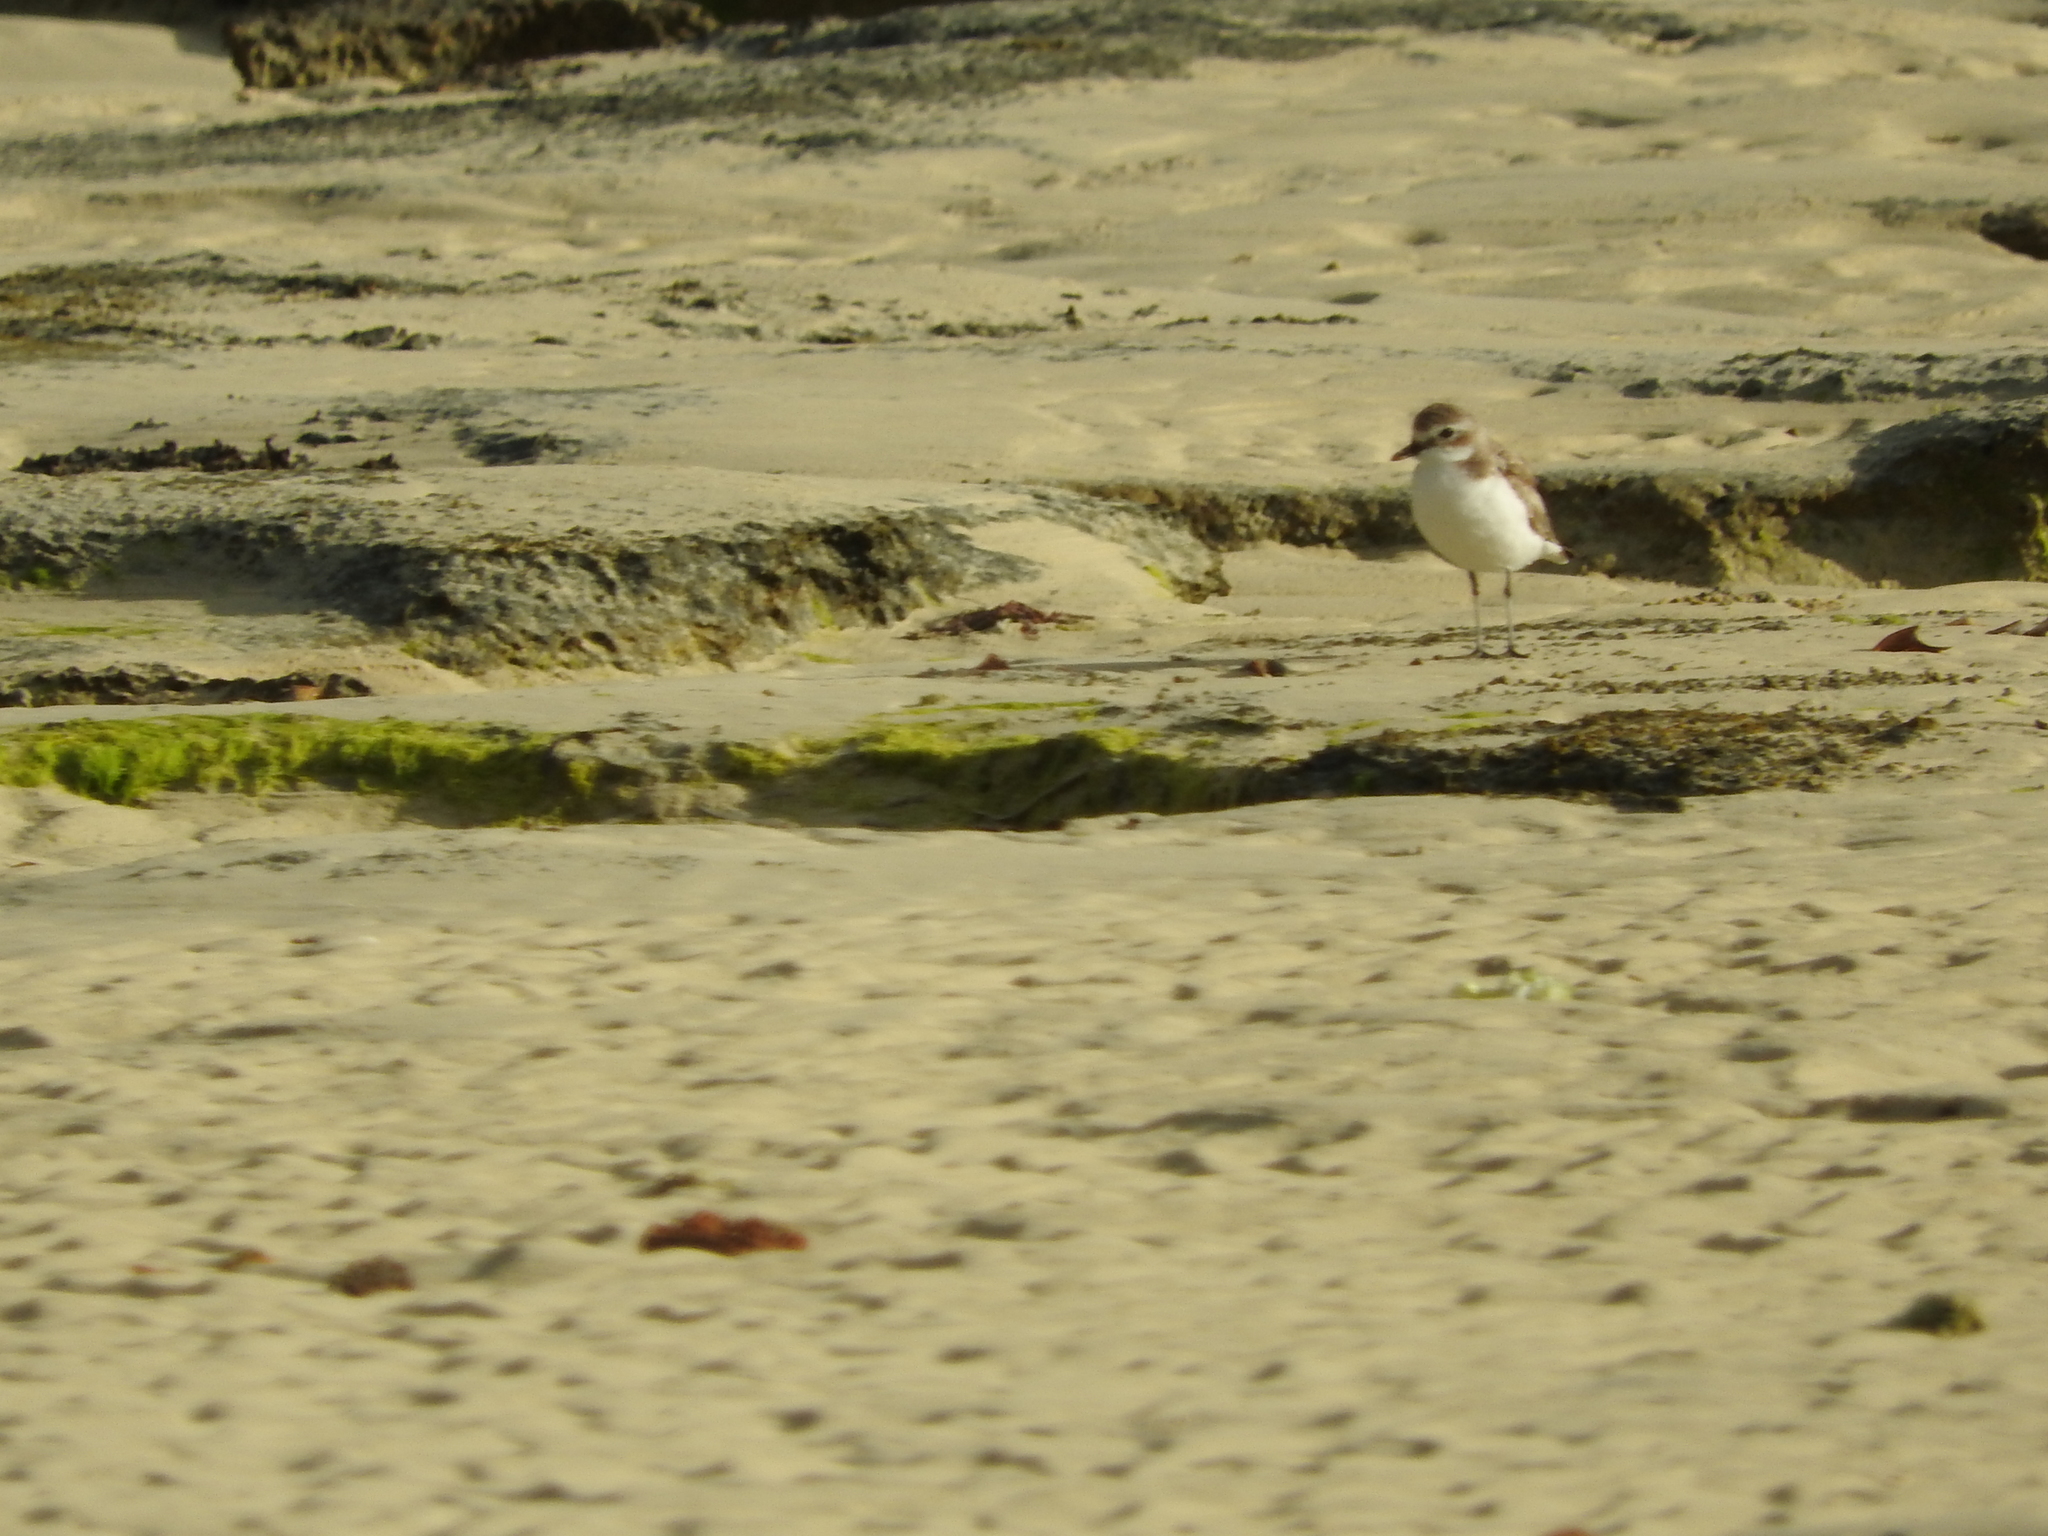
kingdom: Animalia
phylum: Chordata
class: Aves
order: Charadriiformes
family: Charadriidae
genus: Charadrius
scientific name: Charadrius leschenaultii
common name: Greater sand plover
